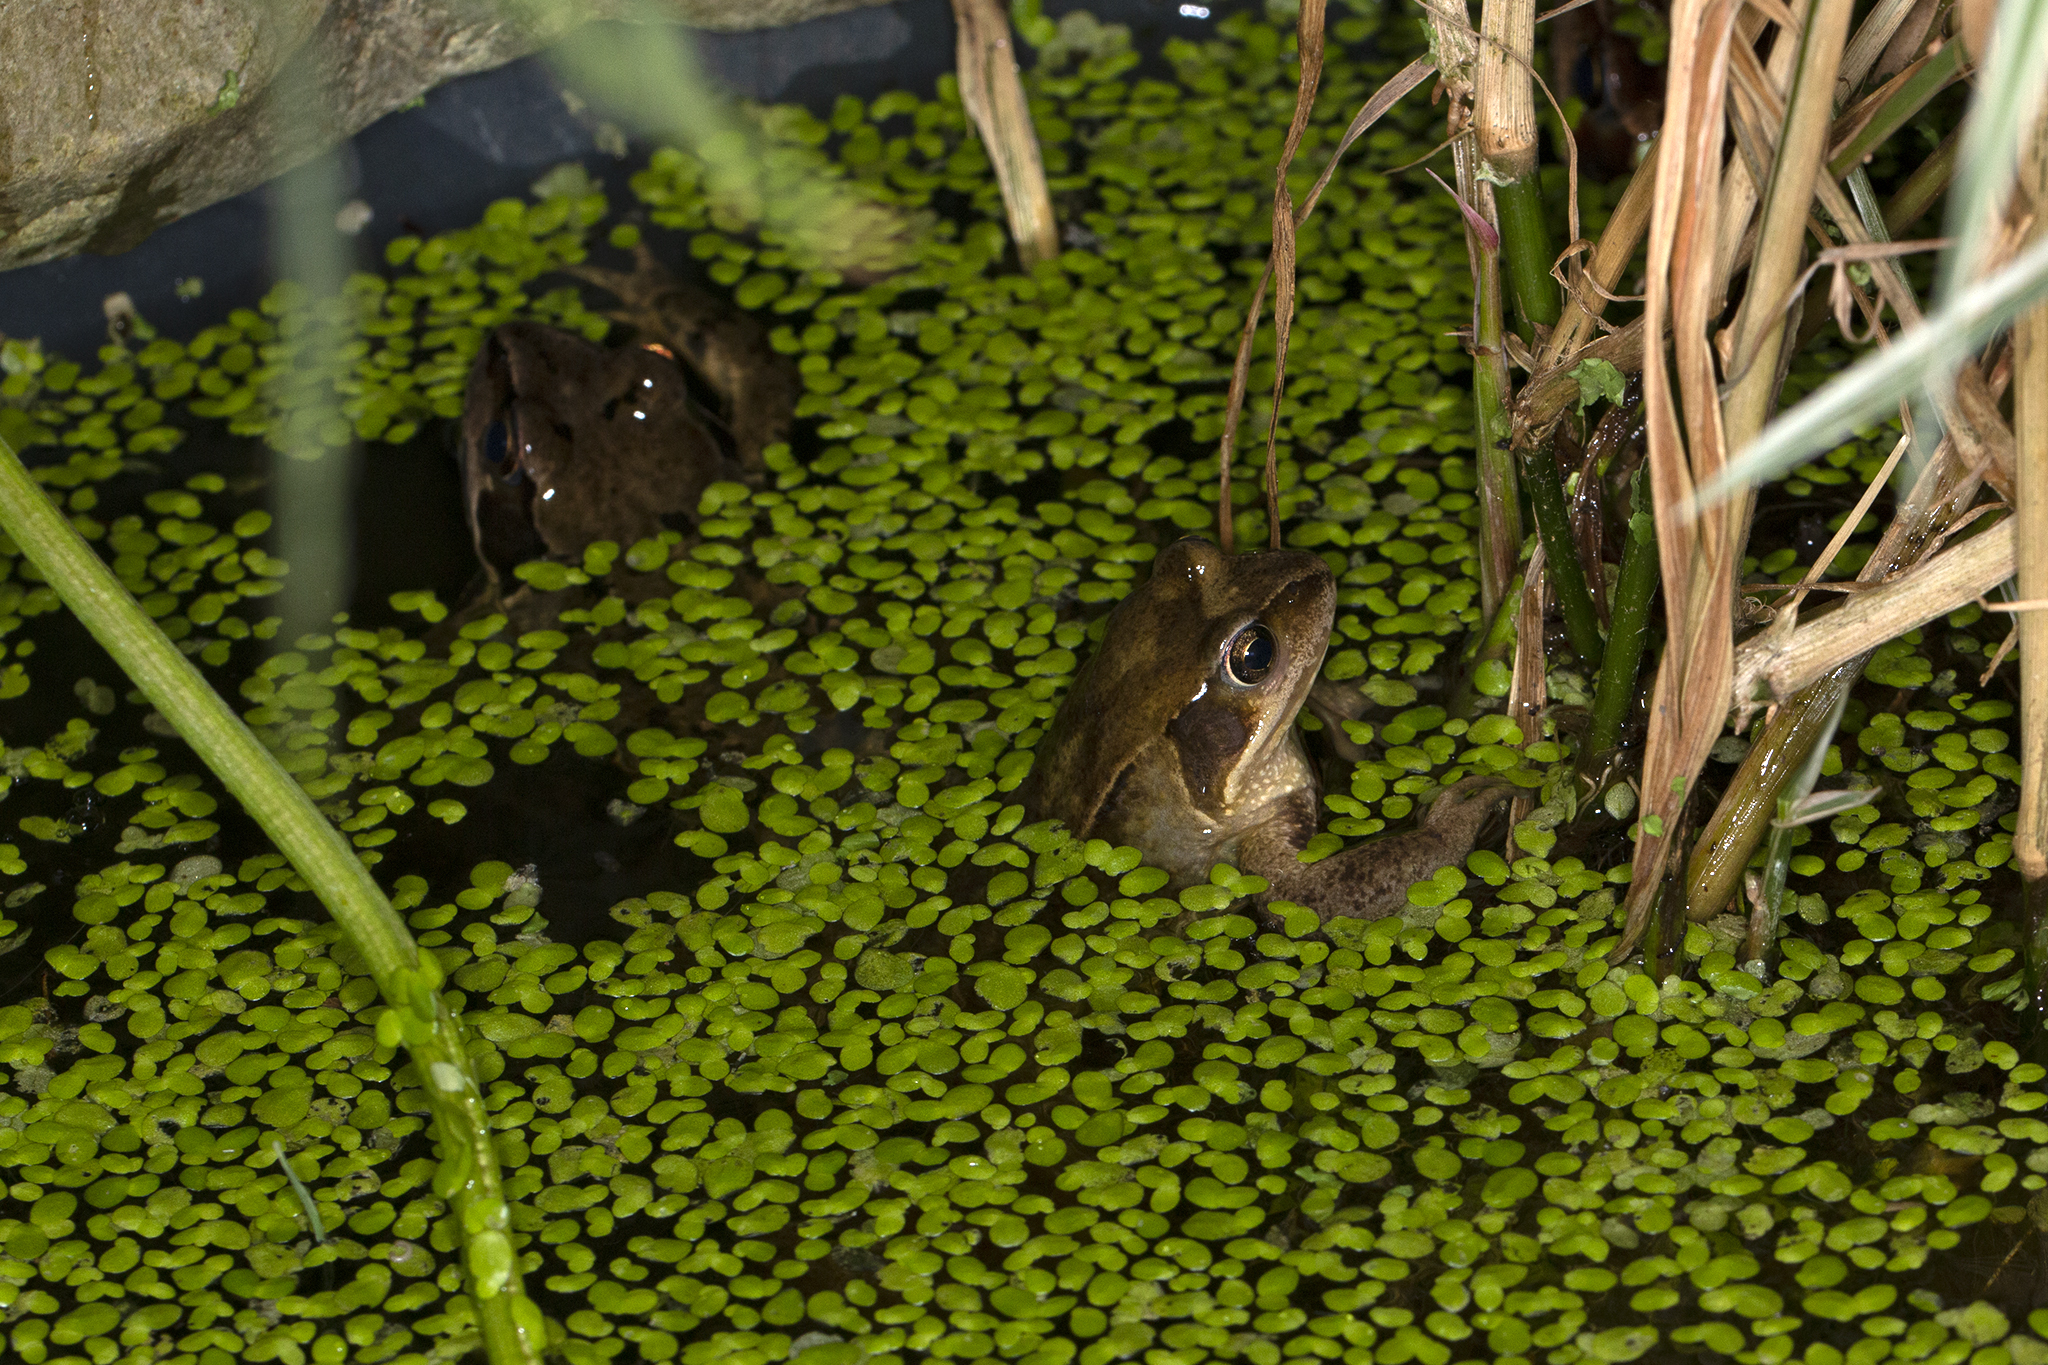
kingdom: Animalia
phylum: Chordata
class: Amphibia
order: Anura
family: Ranidae
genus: Rana
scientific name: Rana temporaria
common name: Common frog
